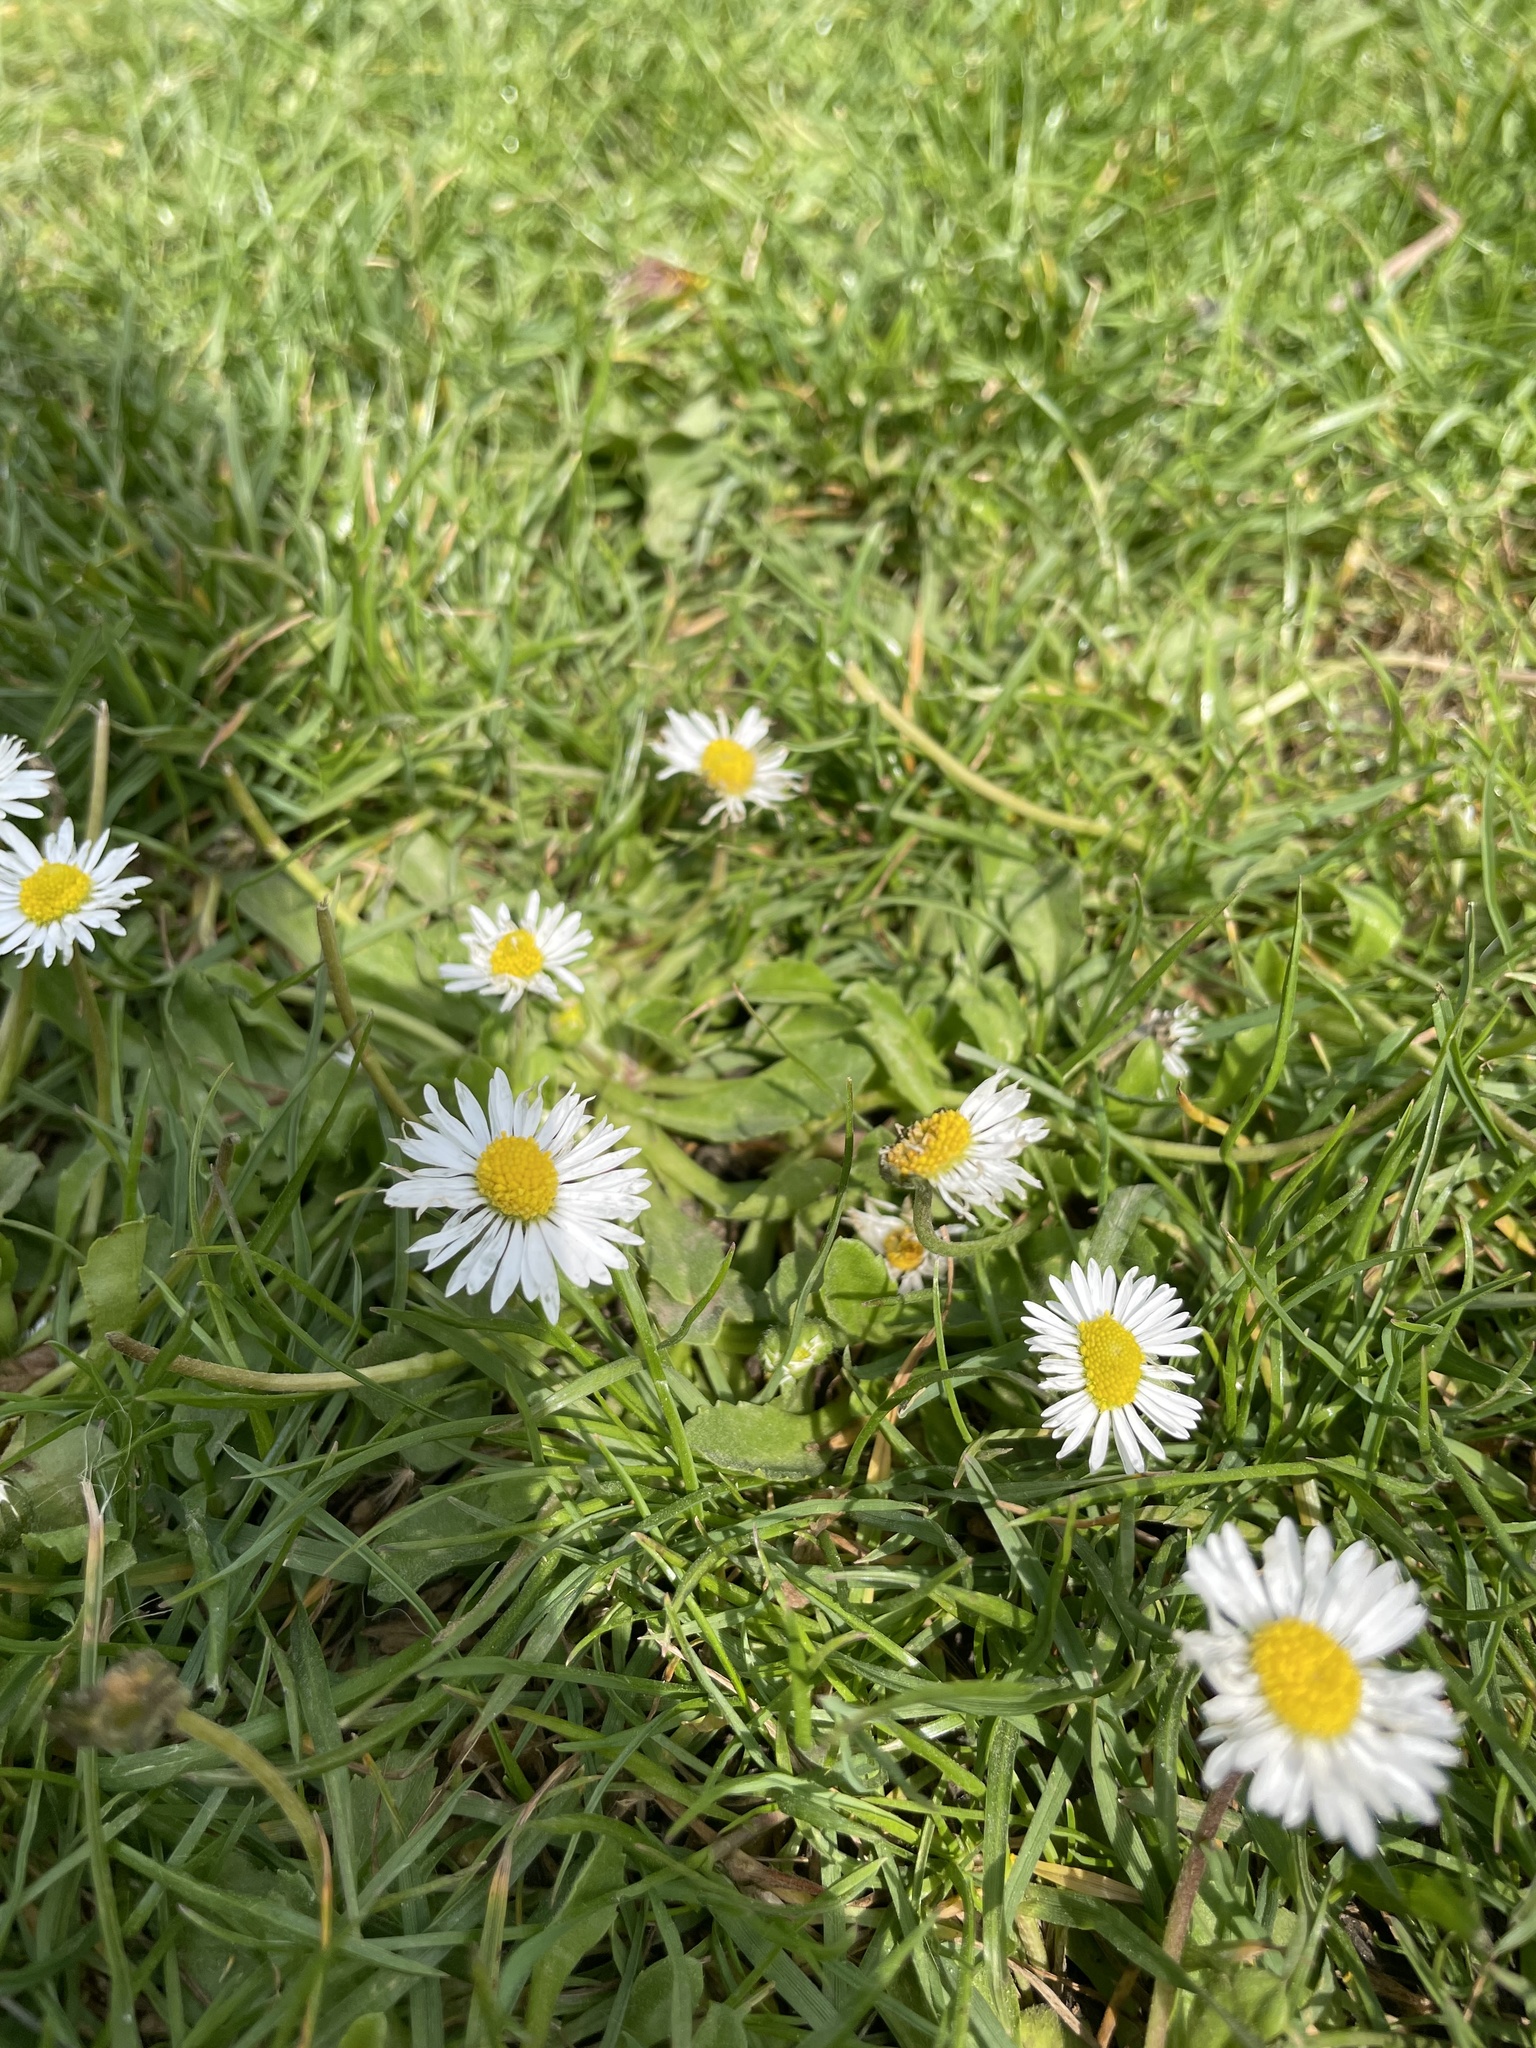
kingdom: Plantae
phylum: Tracheophyta
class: Magnoliopsida
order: Asterales
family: Asteraceae
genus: Bellis
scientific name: Bellis perennis
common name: Lawndaisy
